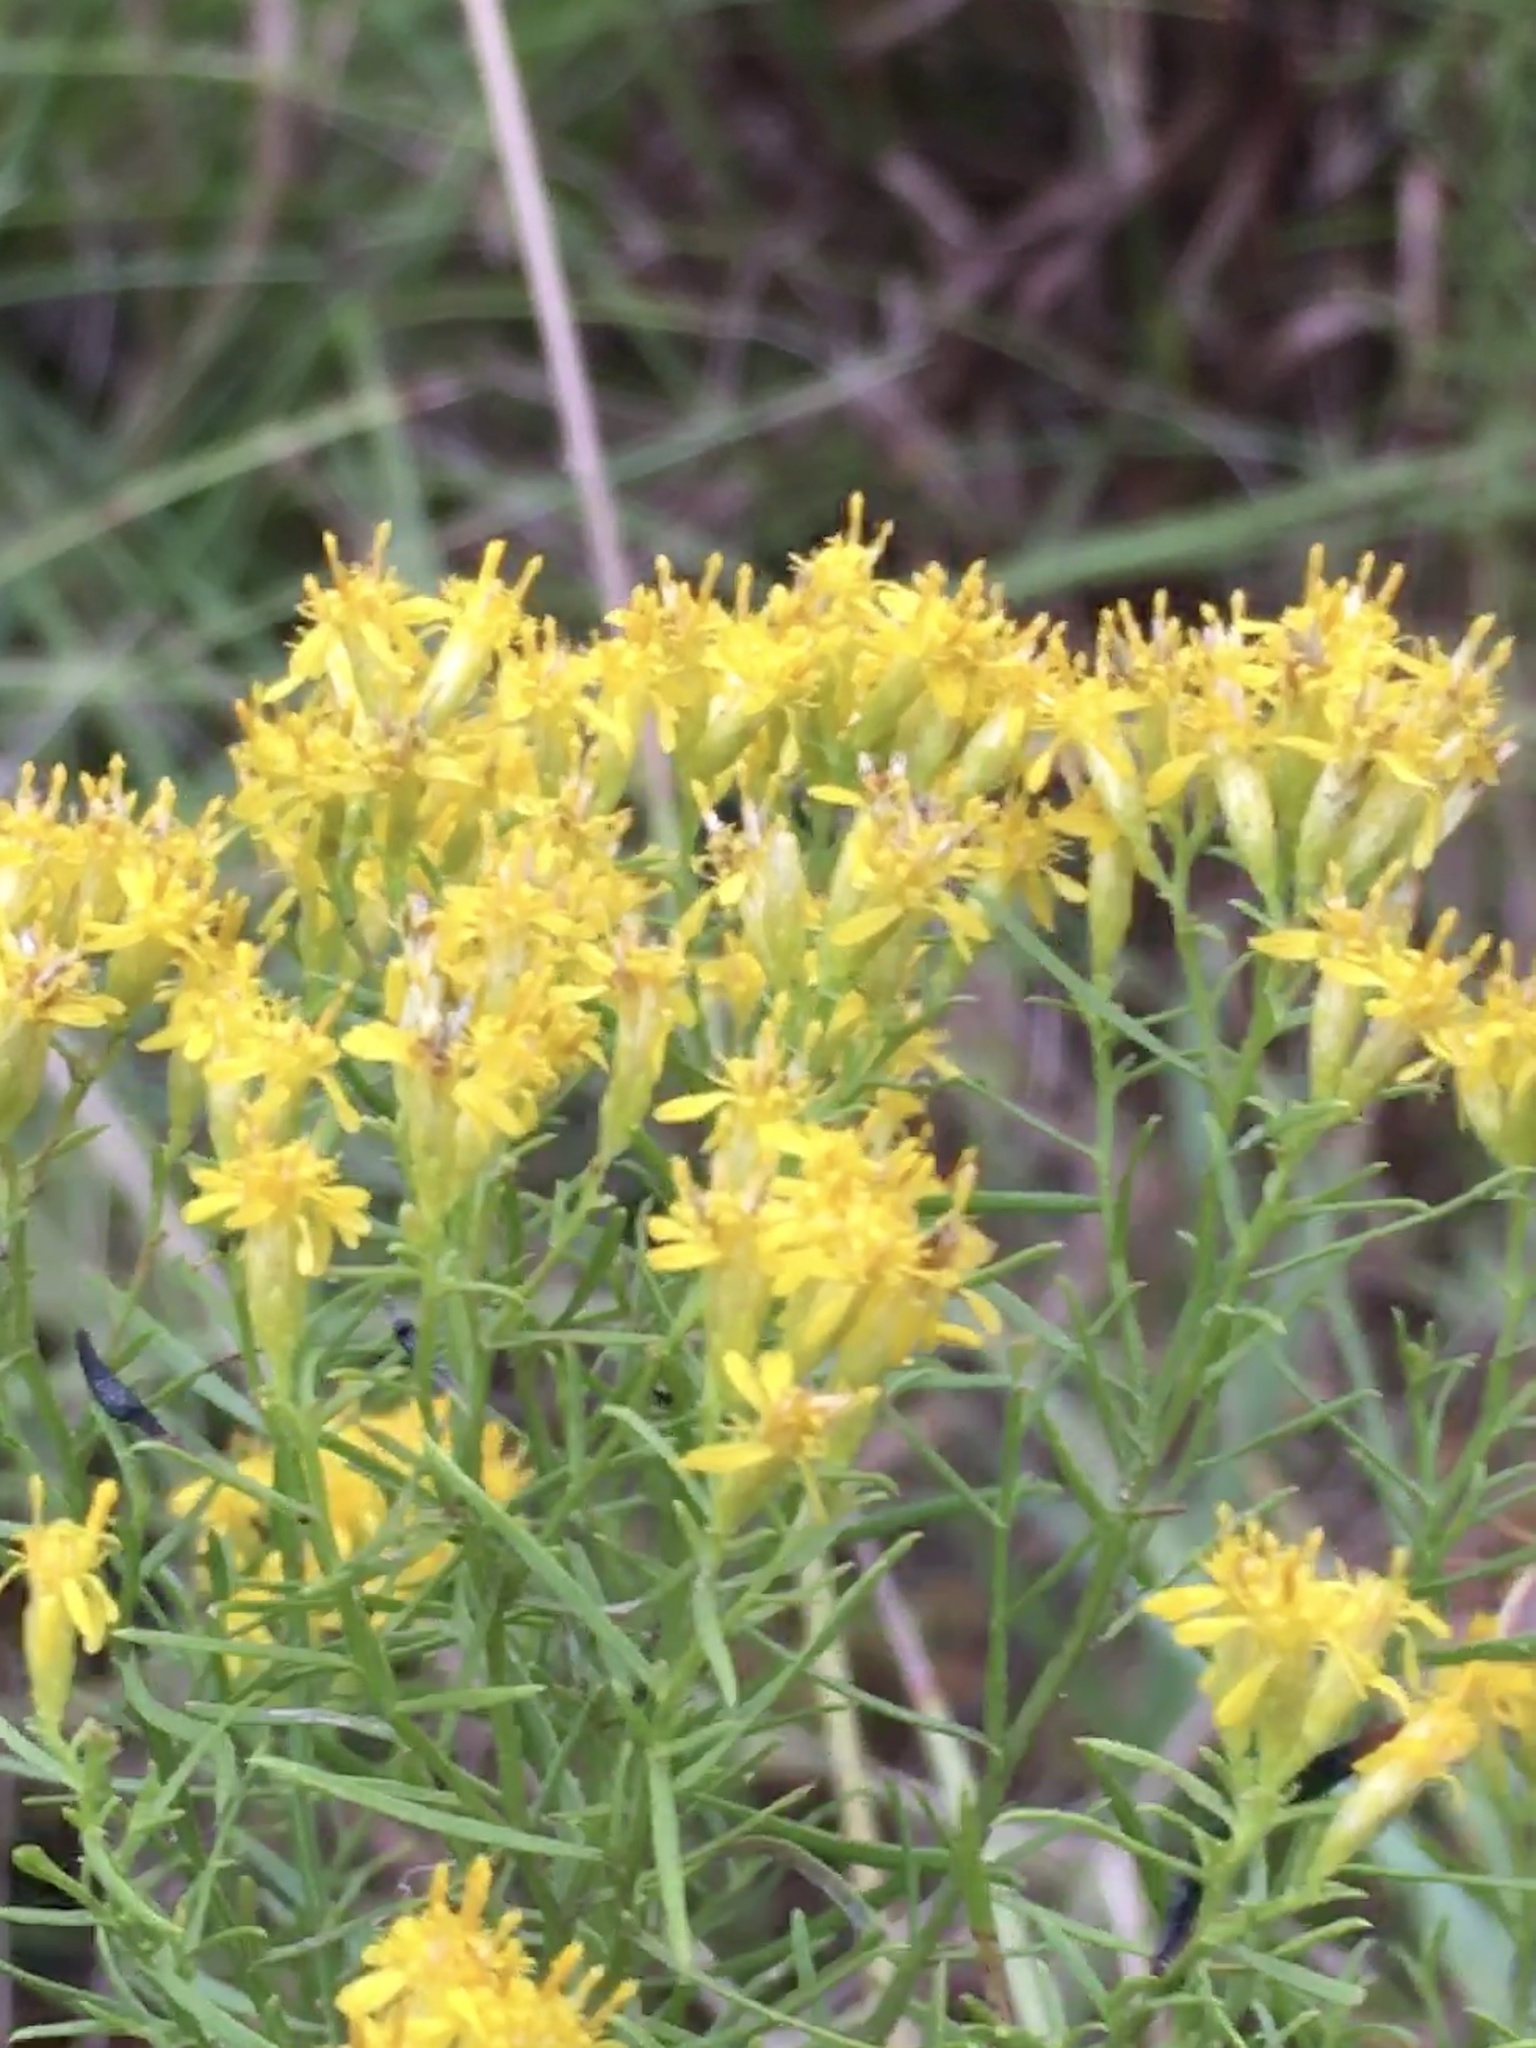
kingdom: Plantae
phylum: Tracheophyta
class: Magnoliopsida
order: Asterales
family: Asteraceae
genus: Euthamia
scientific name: Euthamia caroliniana
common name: Coastal plain goldentop
